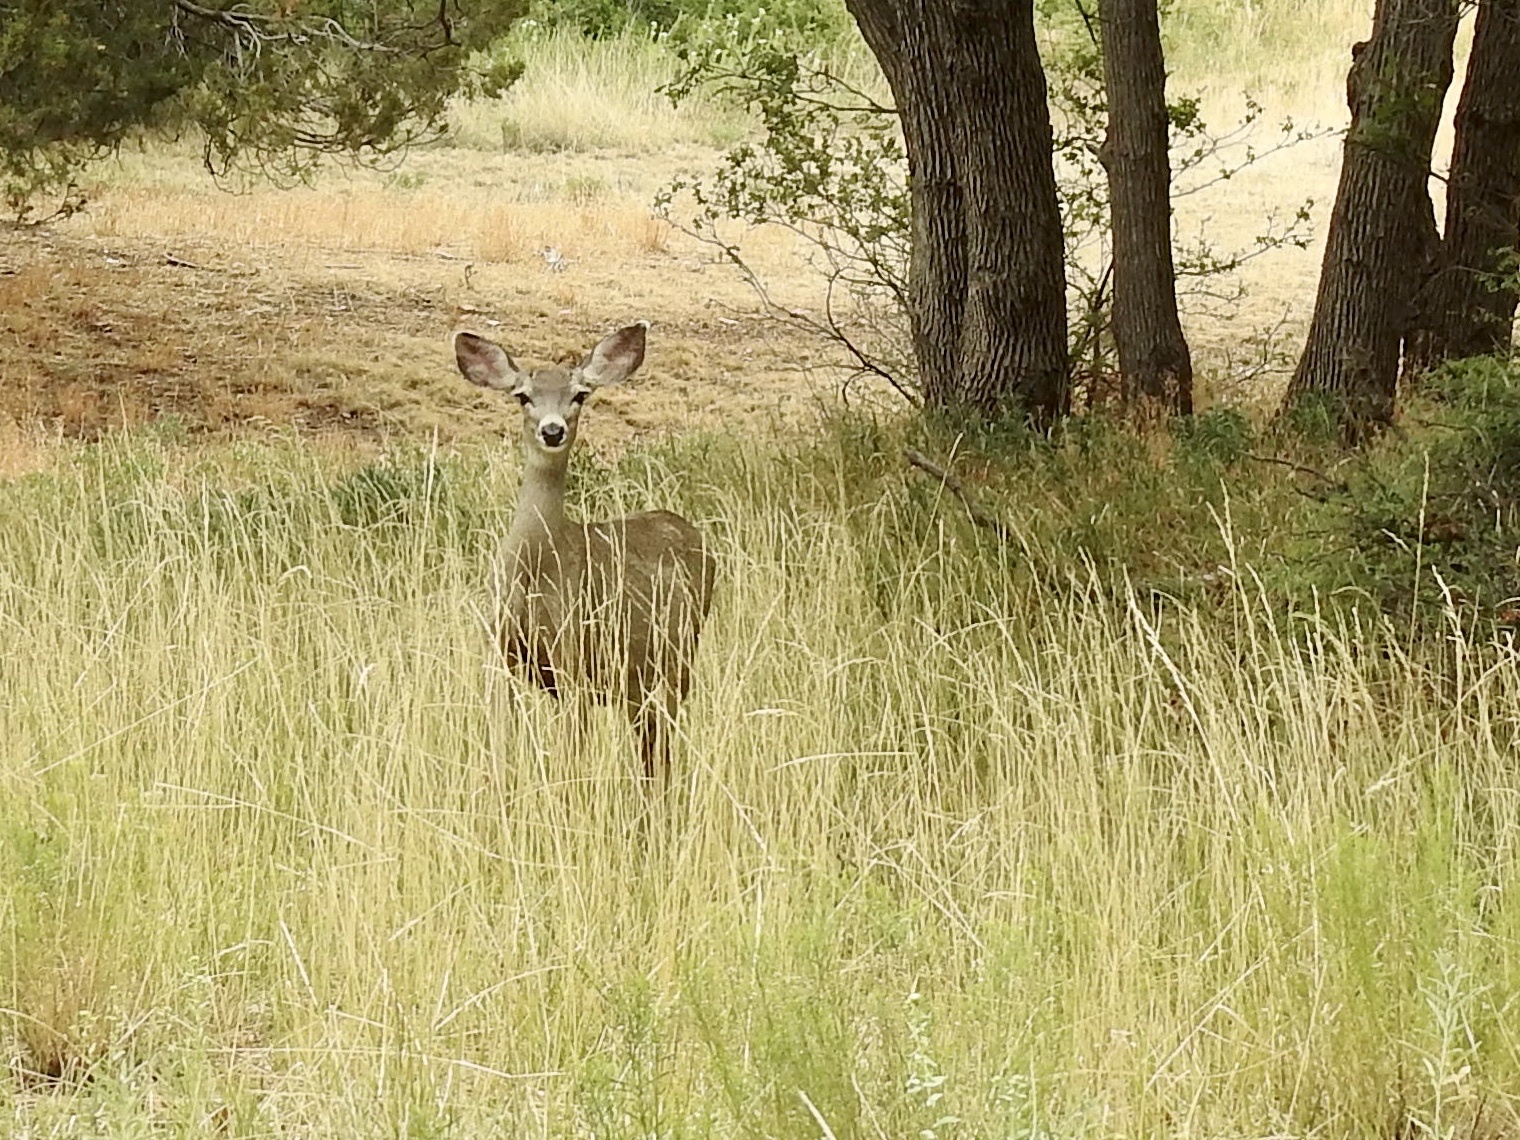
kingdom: Animalia
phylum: Chordata
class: Mammalia
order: Artiodactyla
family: Cervidae
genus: Odocoileus
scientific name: Odocoileus hemionus
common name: Mule deer
